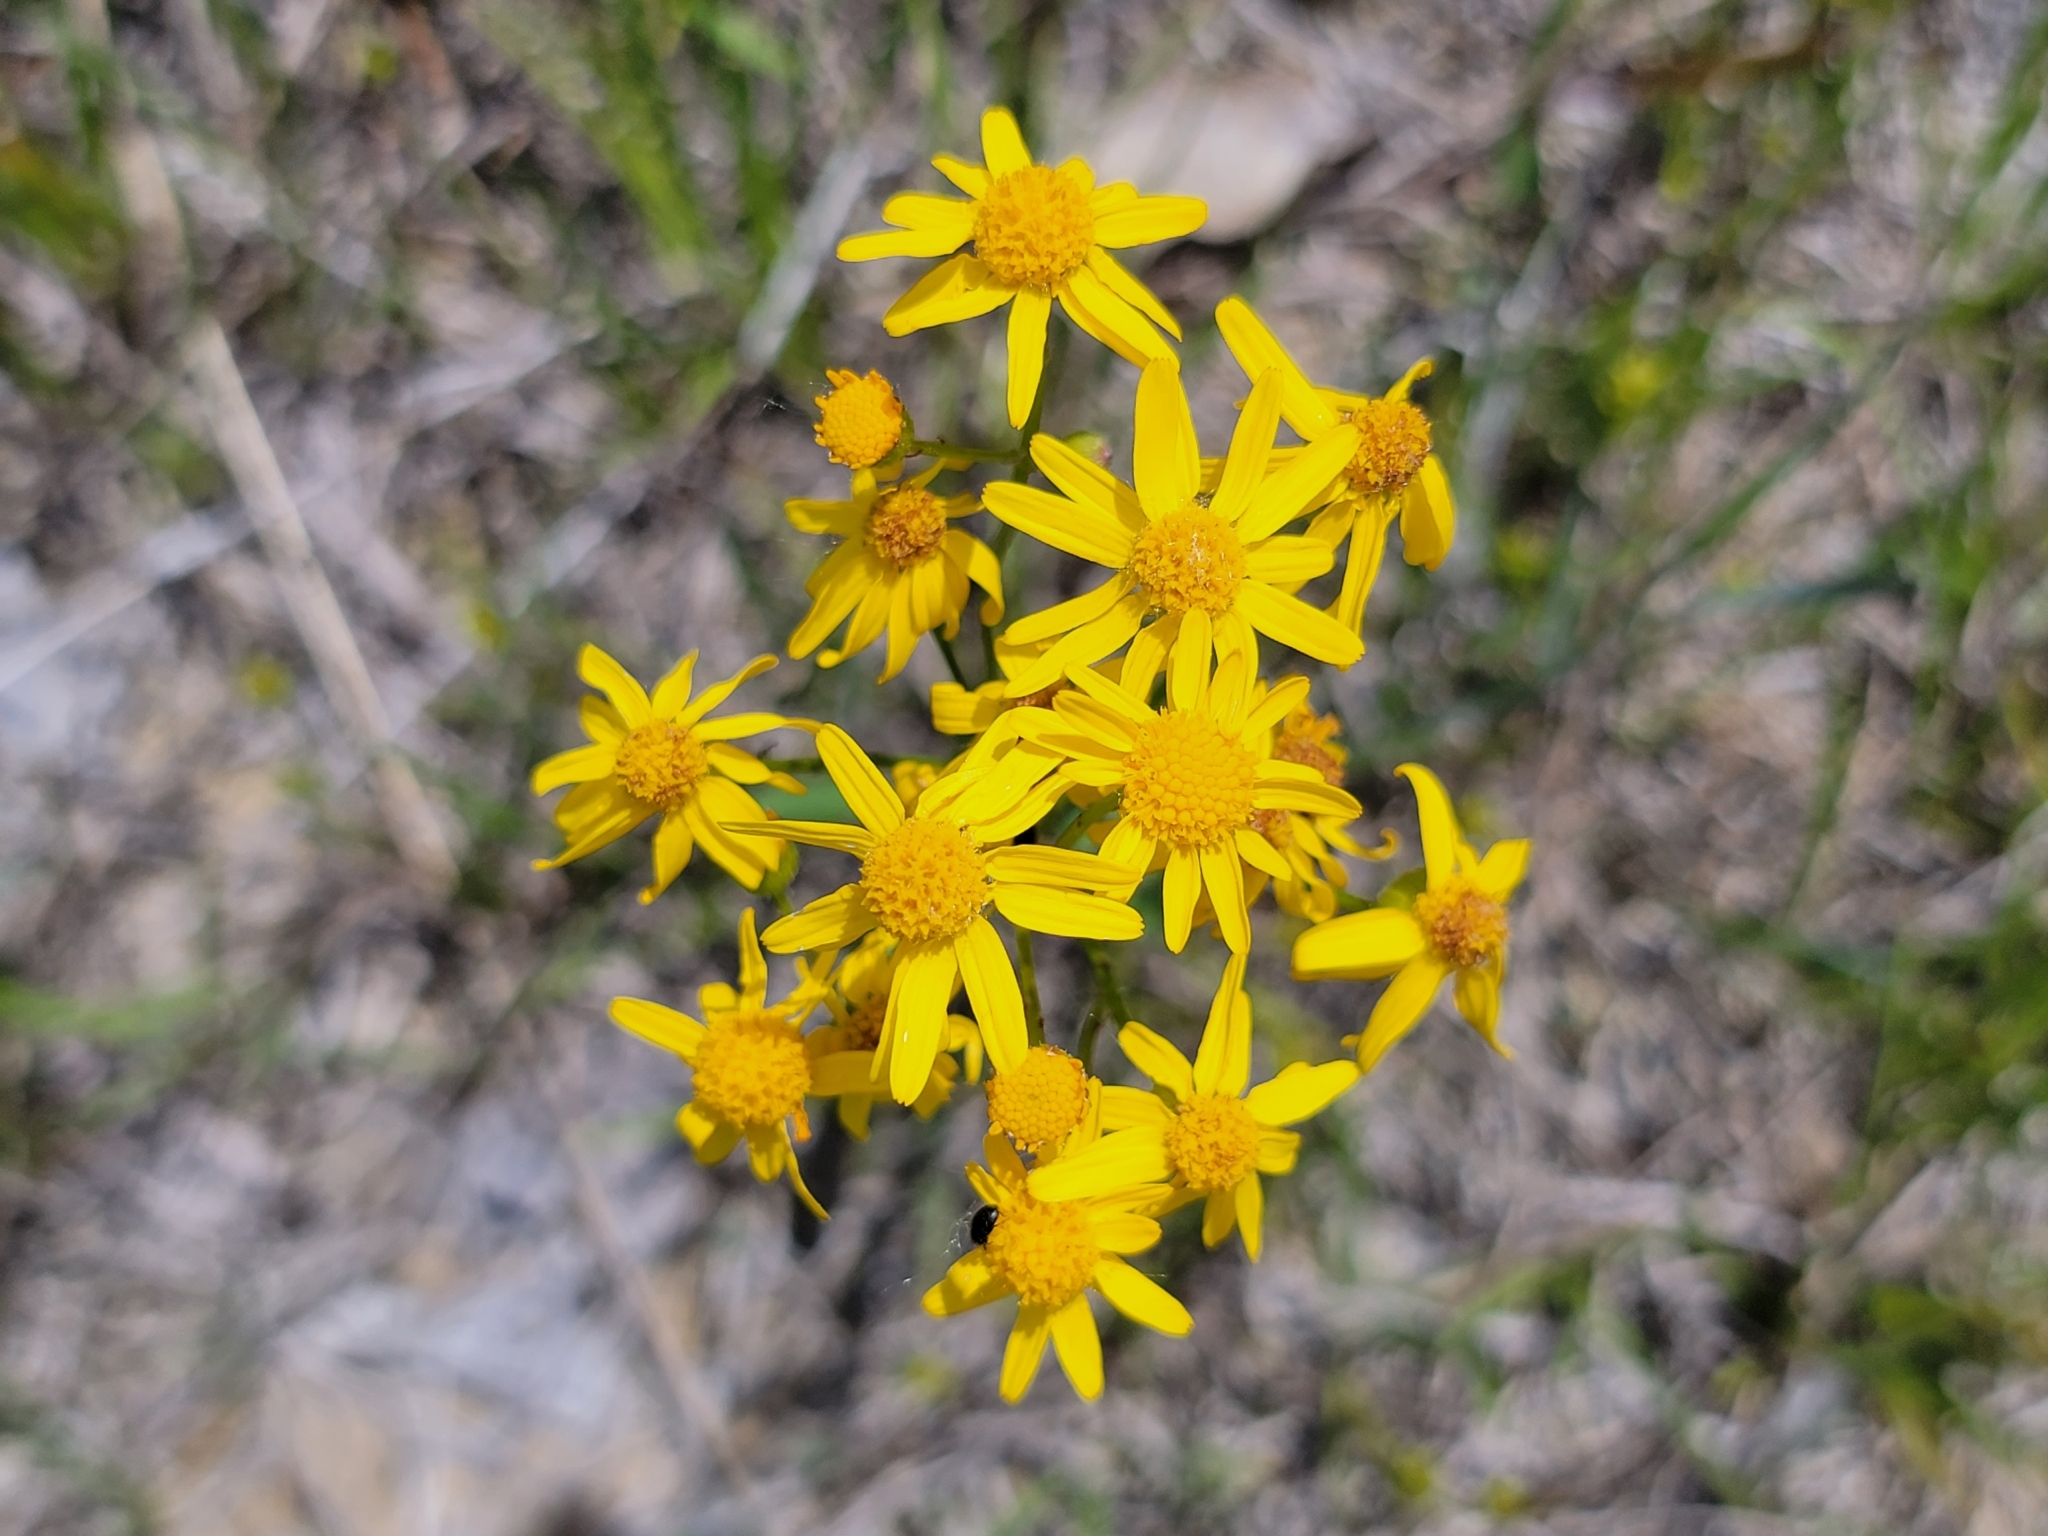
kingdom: Plantae
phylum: Tracheophyta
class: Magnoliopsida
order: Asterales
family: Asteraceae
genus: Packera
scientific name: Packera paupercula
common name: Balsam groundsel
